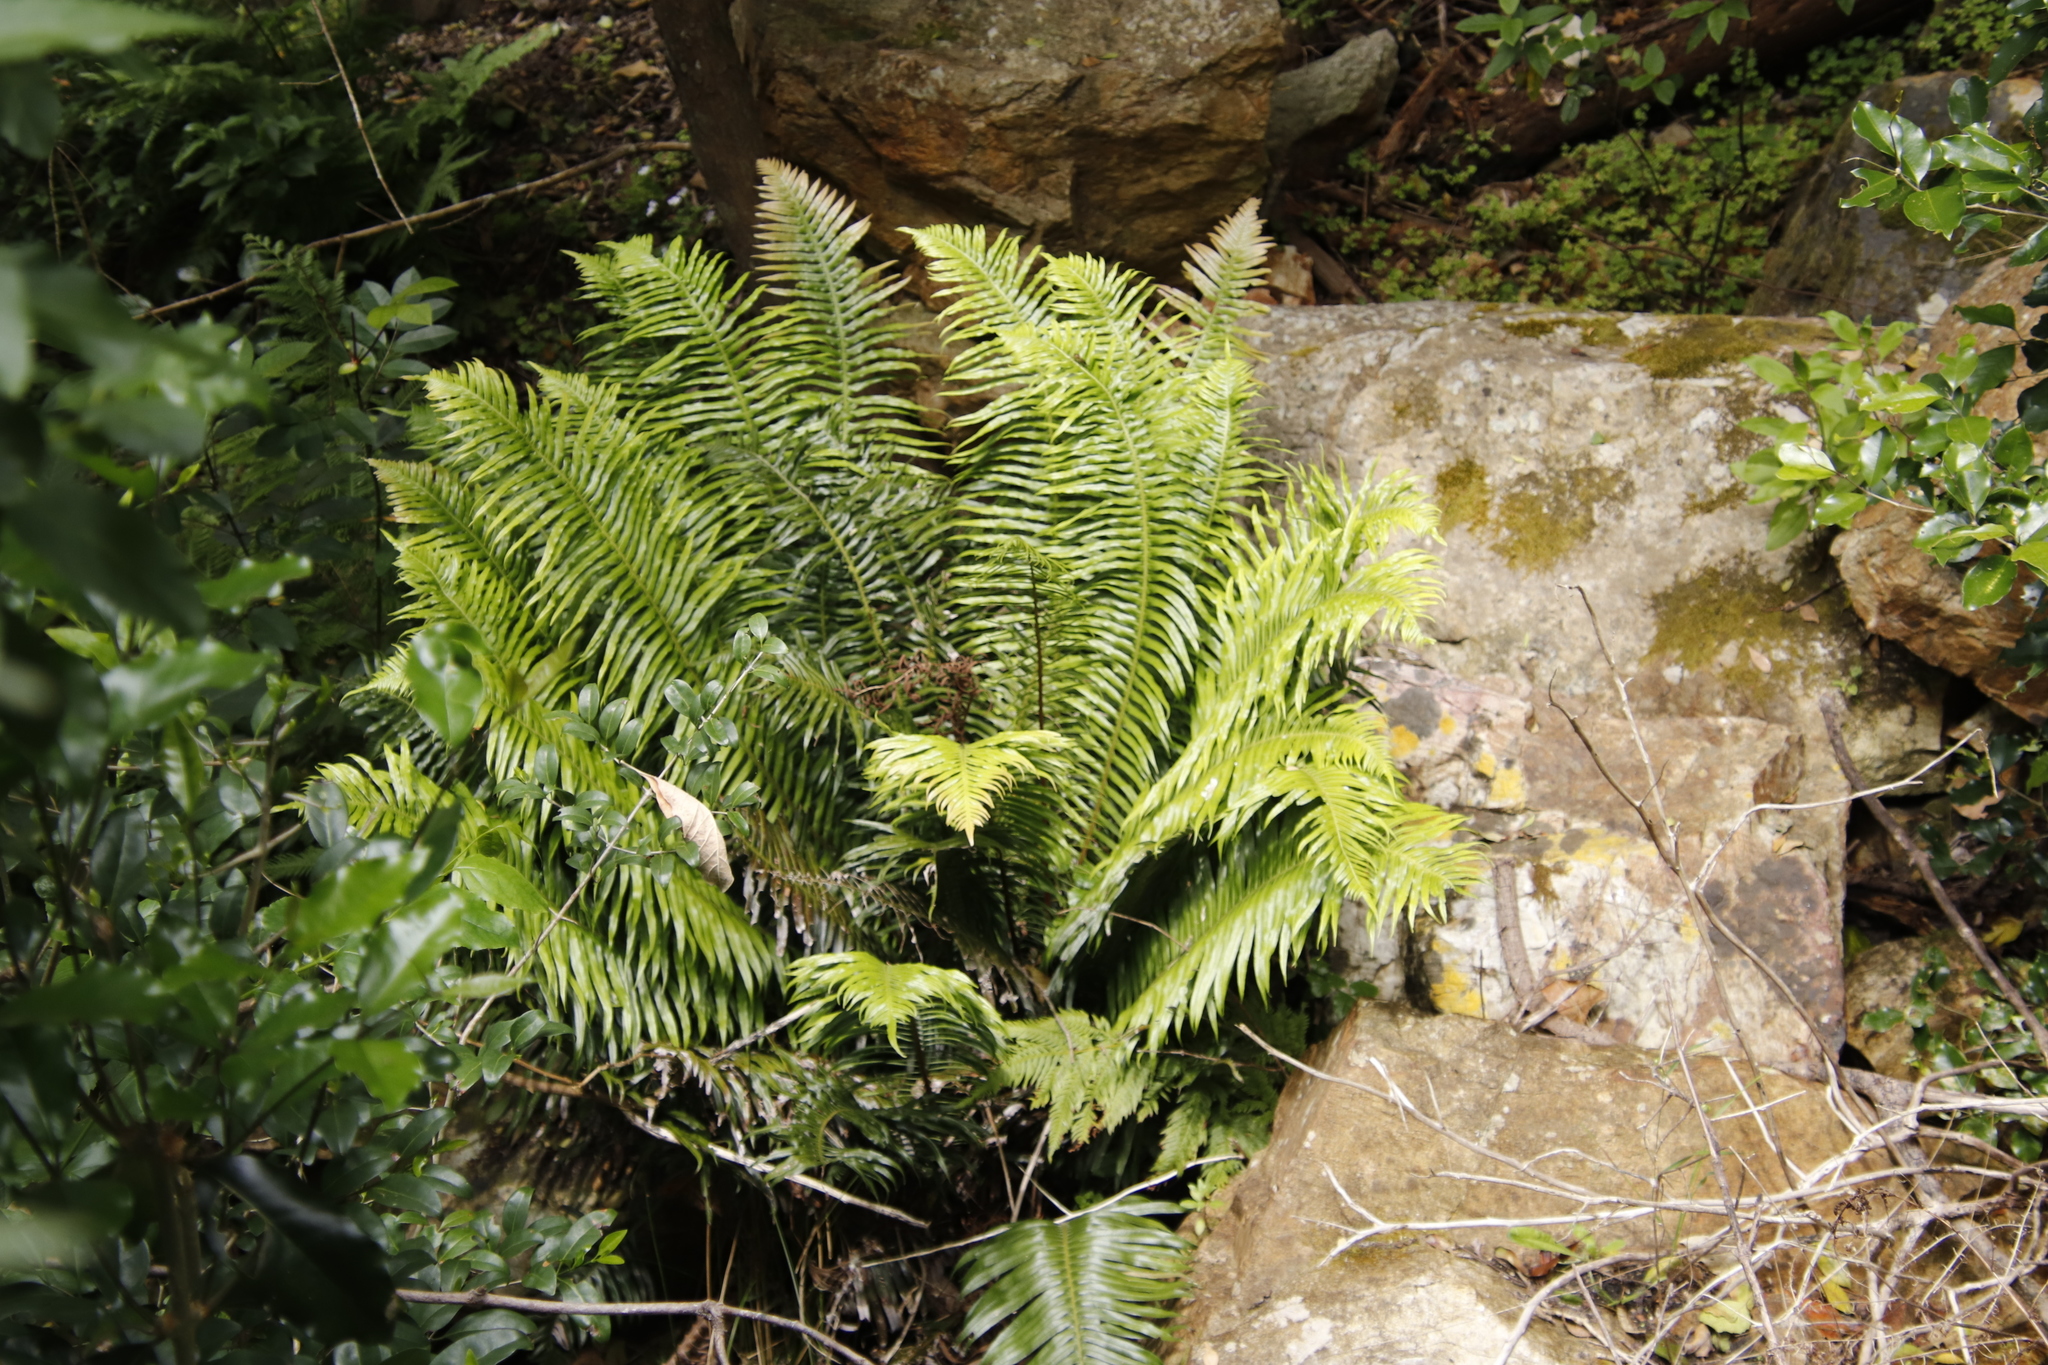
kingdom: Plantae
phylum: Tracheophyta
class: Polypodiopsida
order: Polypodiales
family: Blechnaceae
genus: Lomaridium
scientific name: Lomaridium attenuatum
